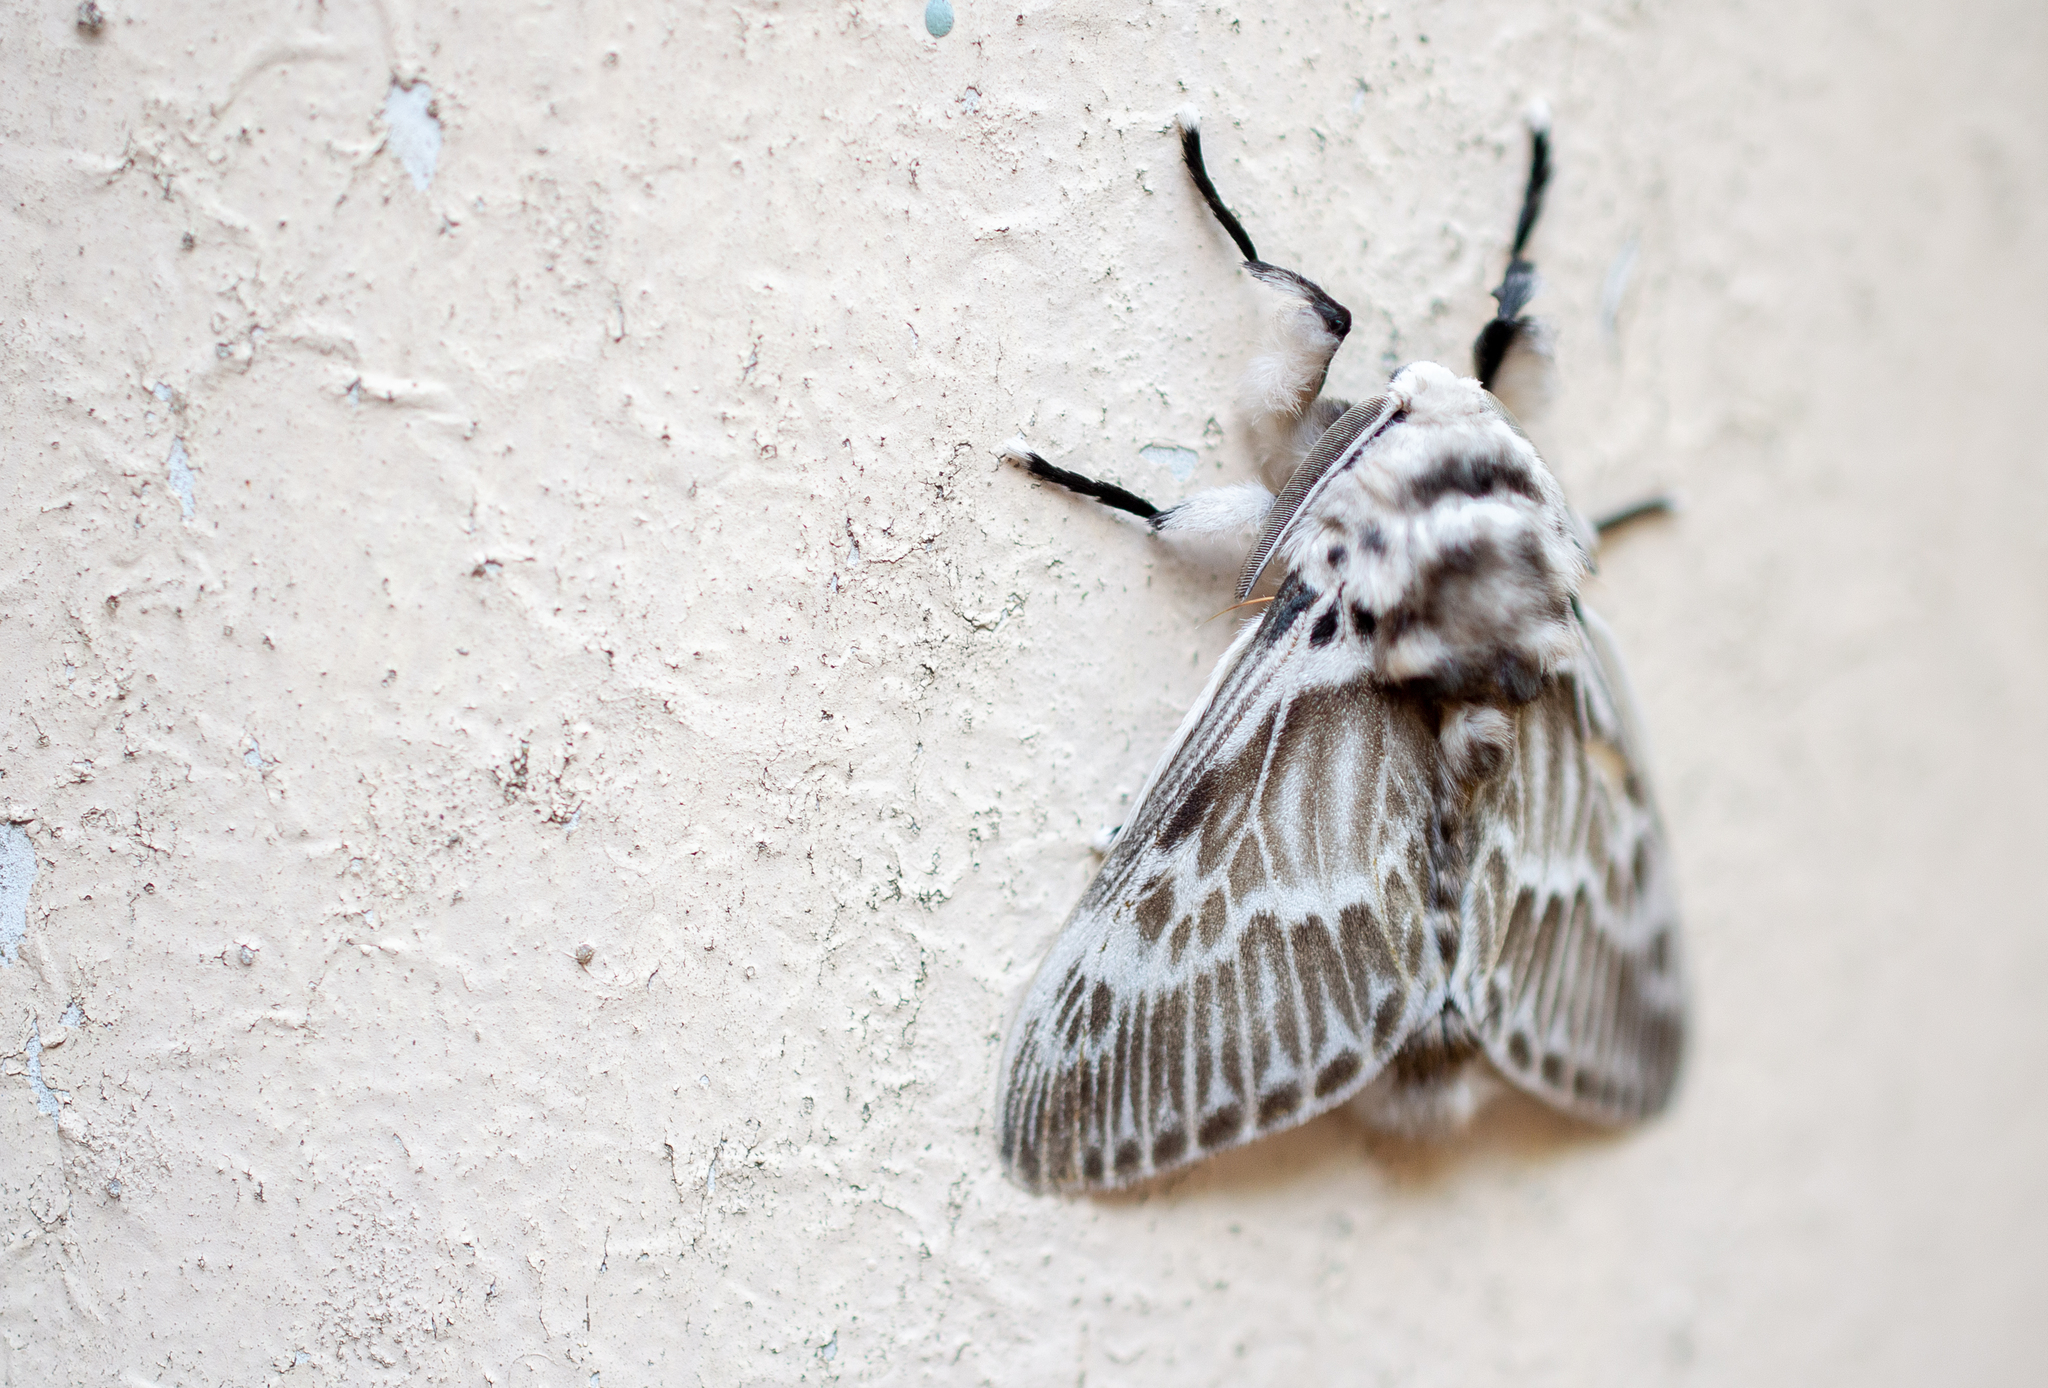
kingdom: Animalia
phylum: Arthropoda
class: Insecta
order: Lepidoptera
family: Megalopygidae
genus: Podalia
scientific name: Podalia orsilochus
